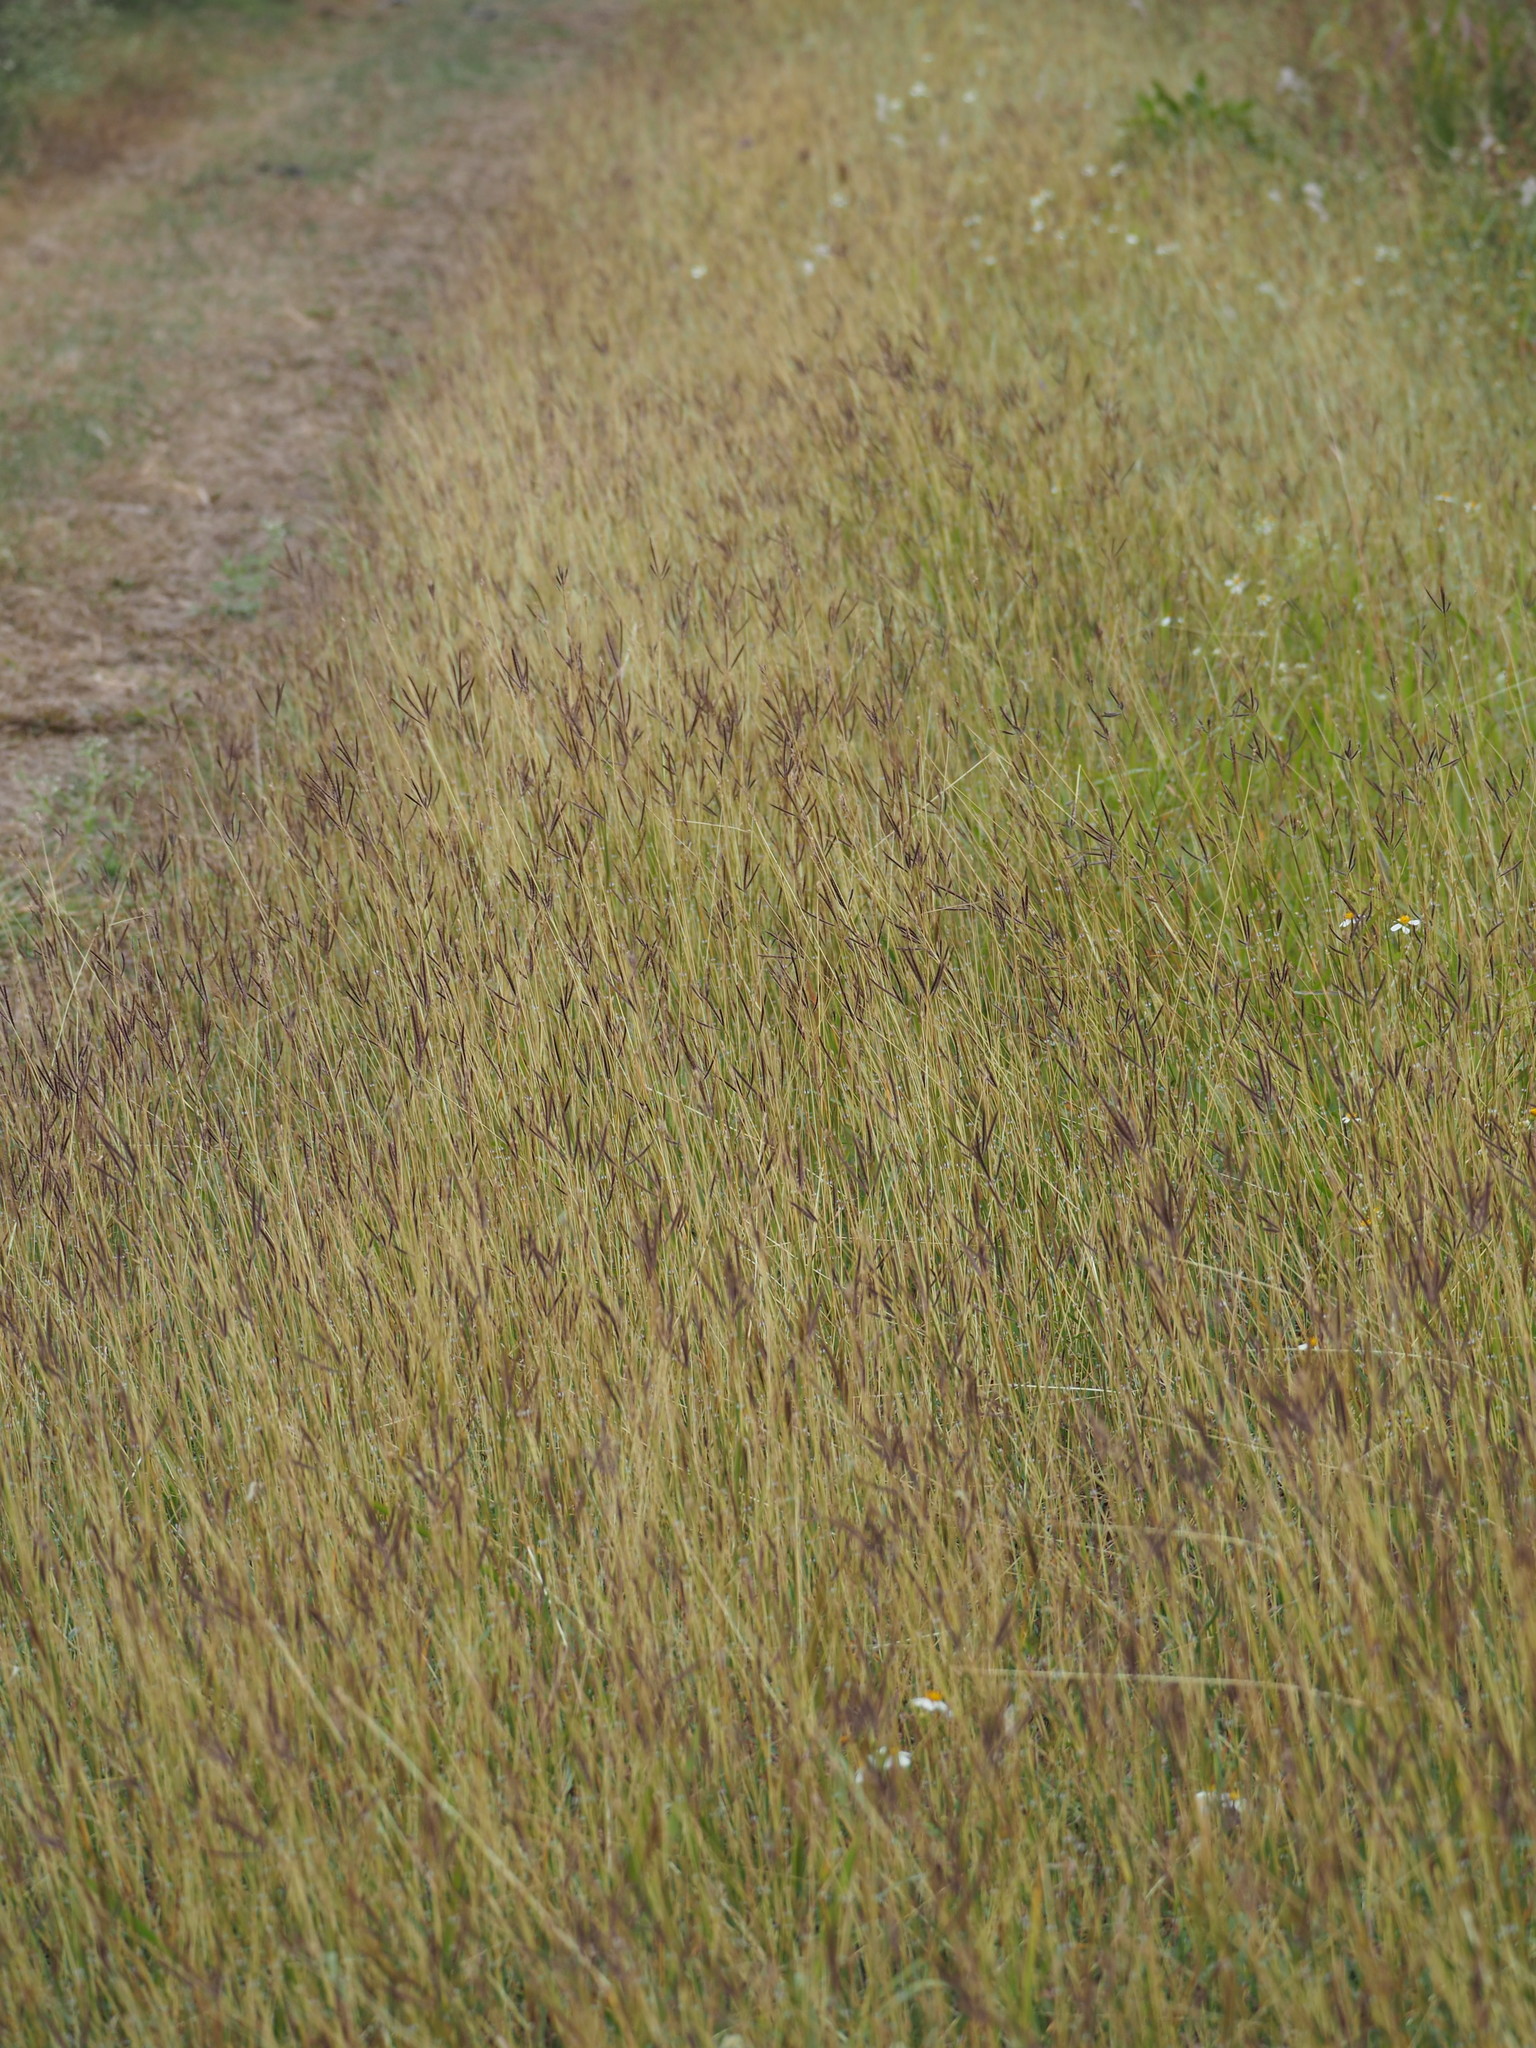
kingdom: Plantae
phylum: Tracheophyta
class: Liliopsida
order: Poales
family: Poaceae
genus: Dichanthium
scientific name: Dichanthium annulatum
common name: Kleberg's bluestem
